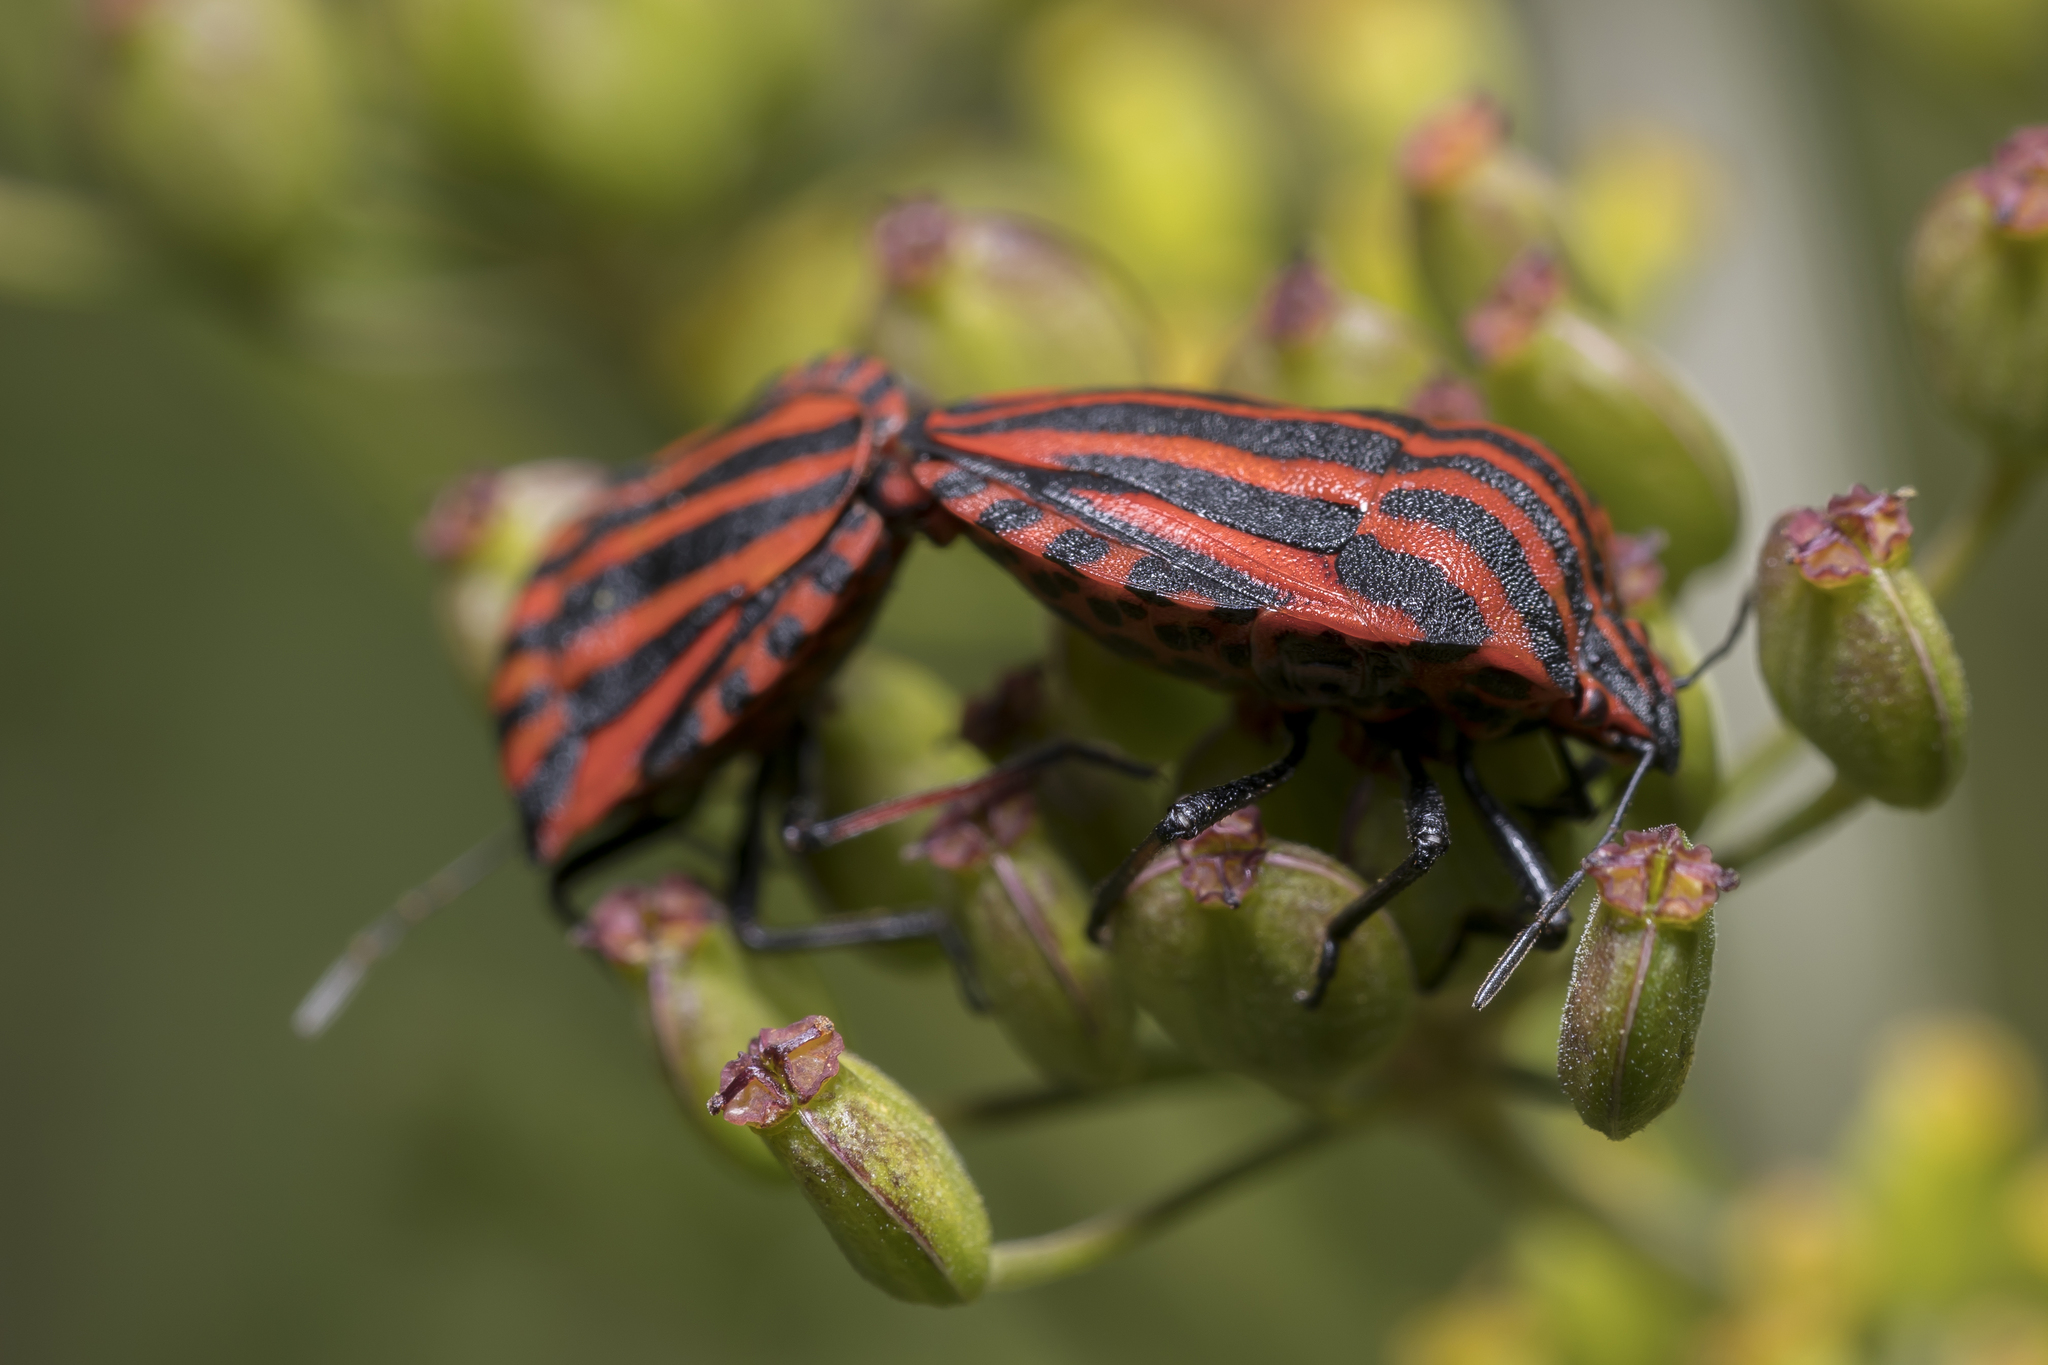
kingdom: Animalia
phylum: Arthropoda
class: Insecta
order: Hemiptera
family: Pentatomidae
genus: Graphosoma
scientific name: Graphosoma italicum
